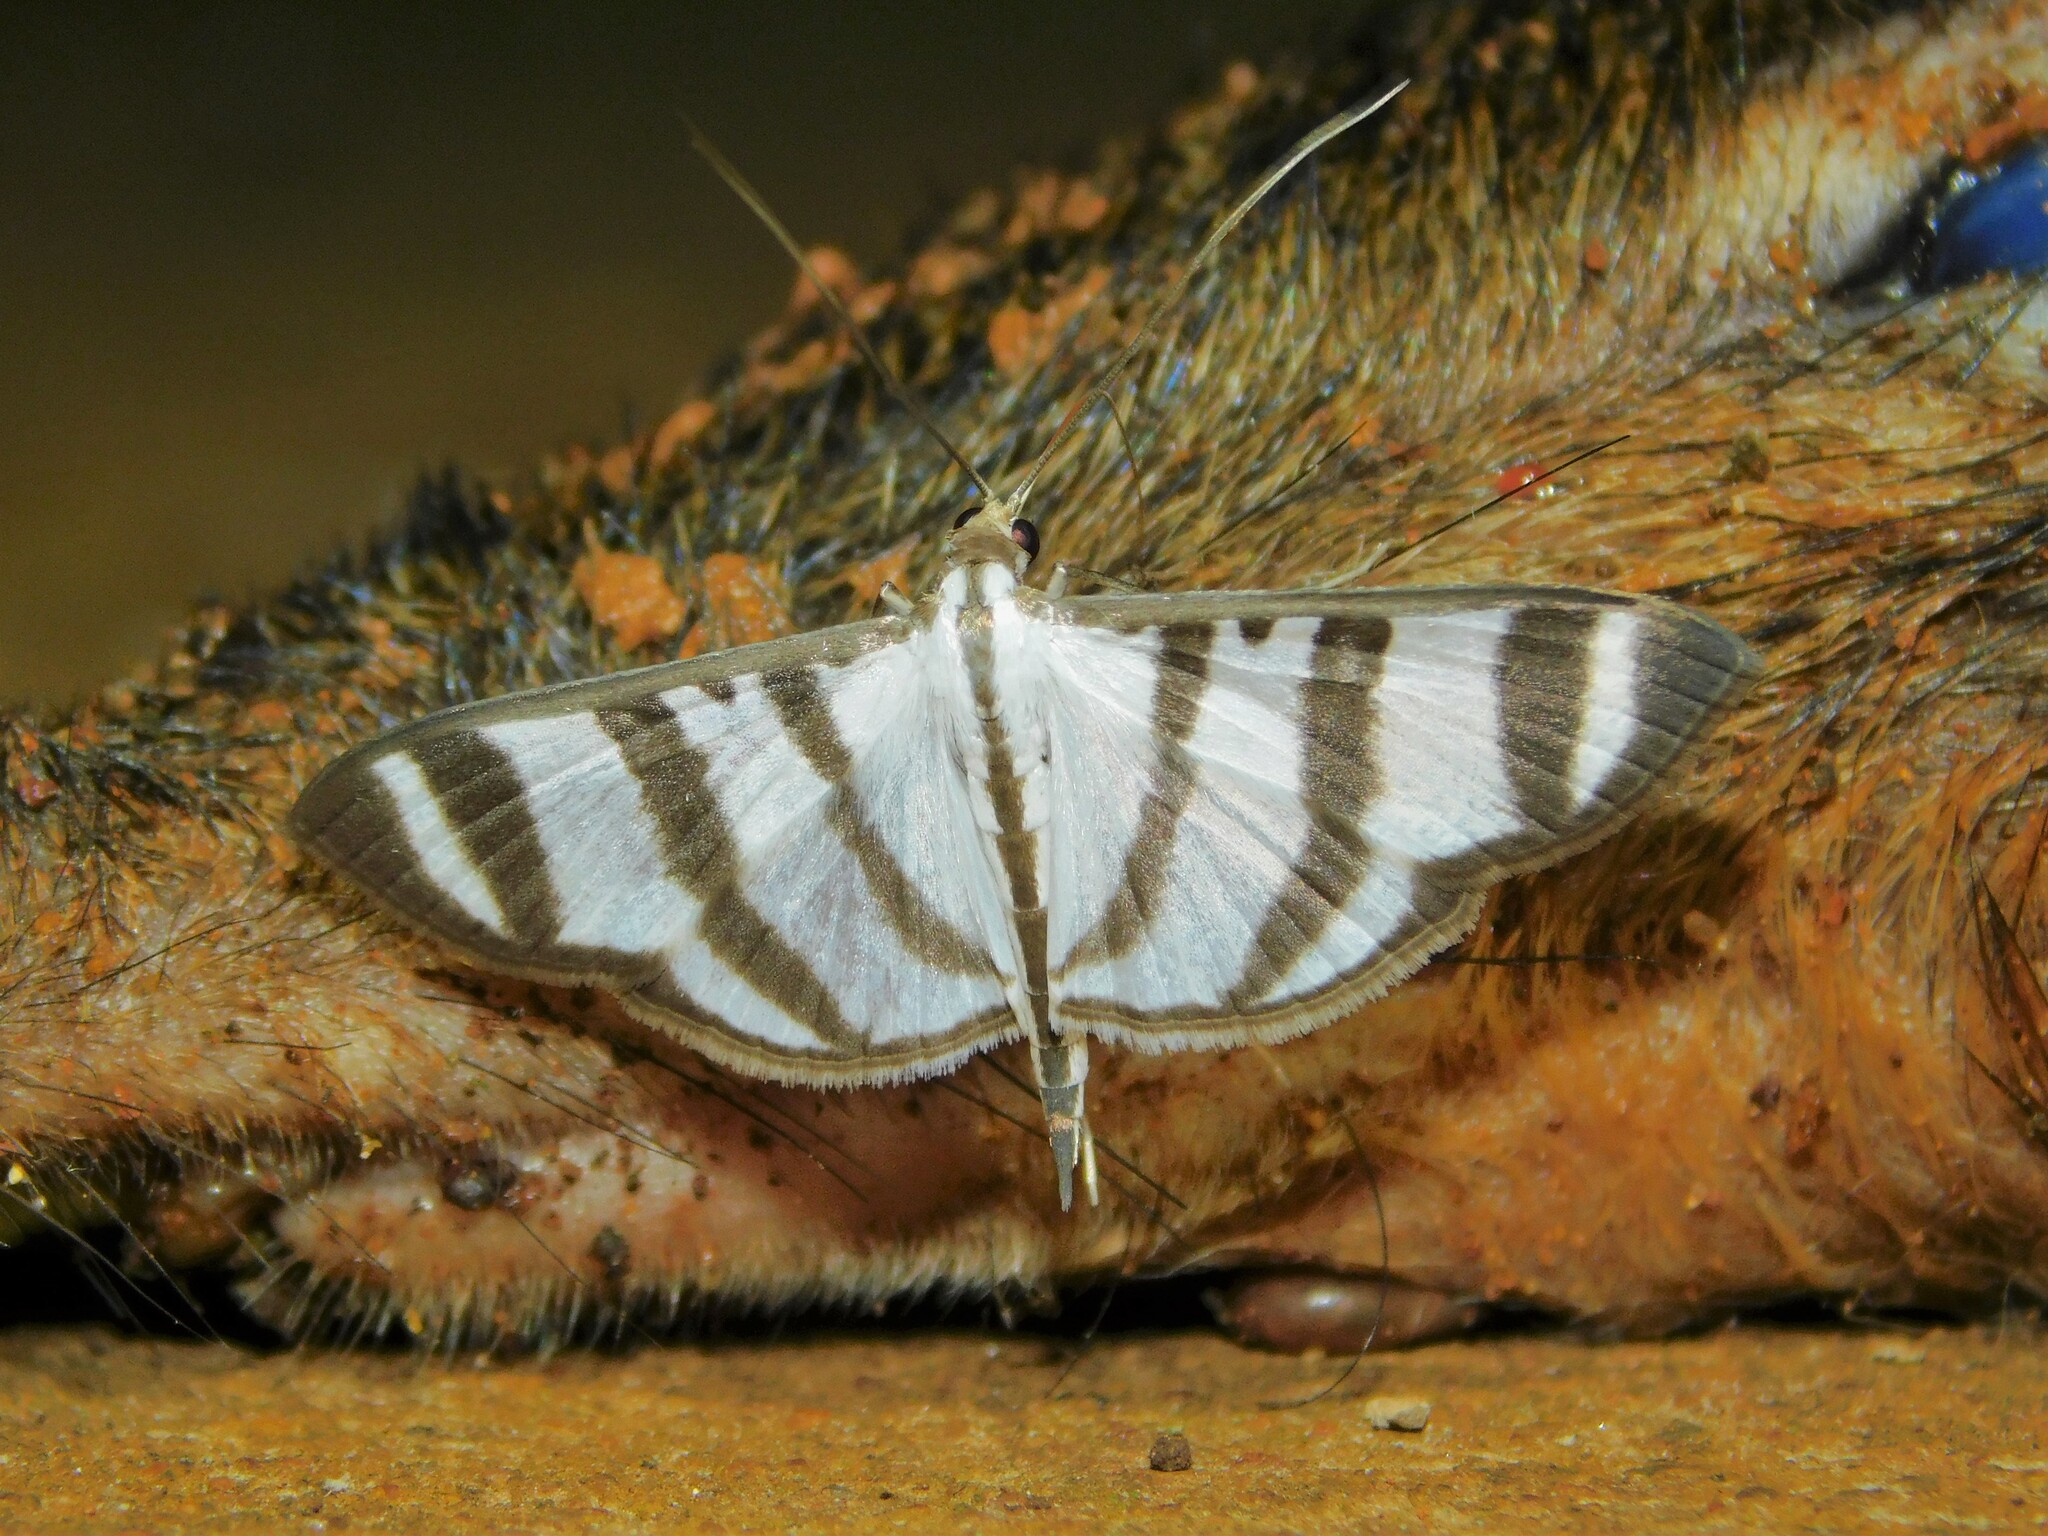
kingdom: Animalia
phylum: Arthropoda
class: Insecta
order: Lepidoptera
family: Crambidae
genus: Zebronia
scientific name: Zebronia phenice
